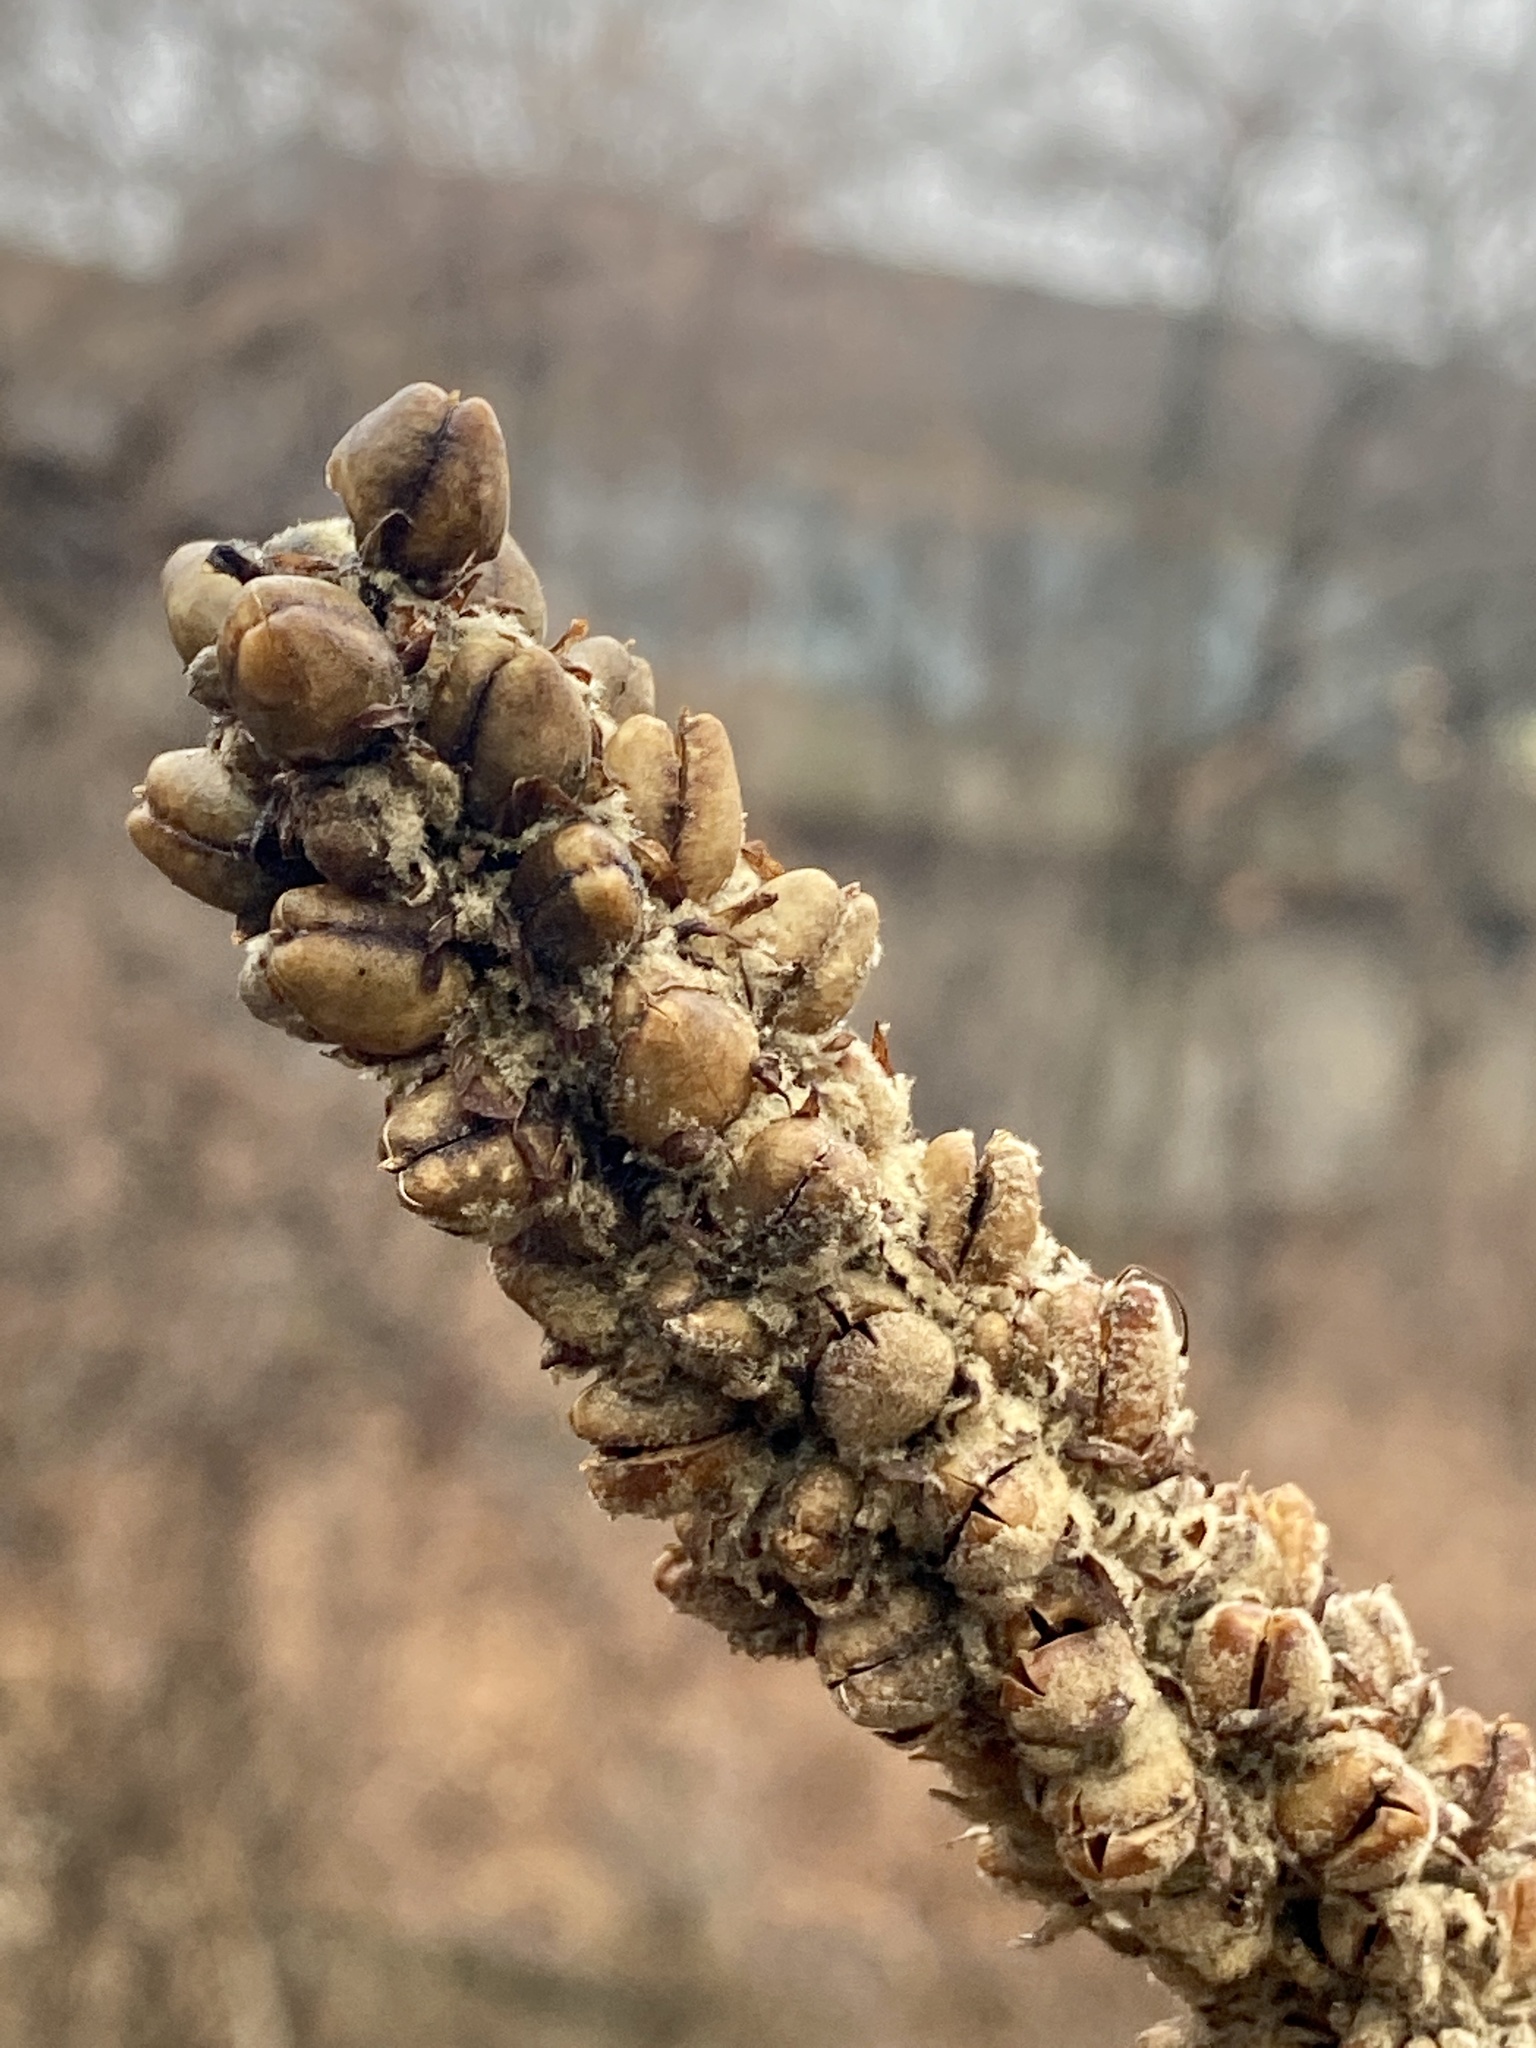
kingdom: Plantae
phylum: Tracheophyta
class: Magnoliopsida
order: Lamiales
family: Scrophulariaceae
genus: Verbascum
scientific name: Verbascum thapsus
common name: Common mullein
